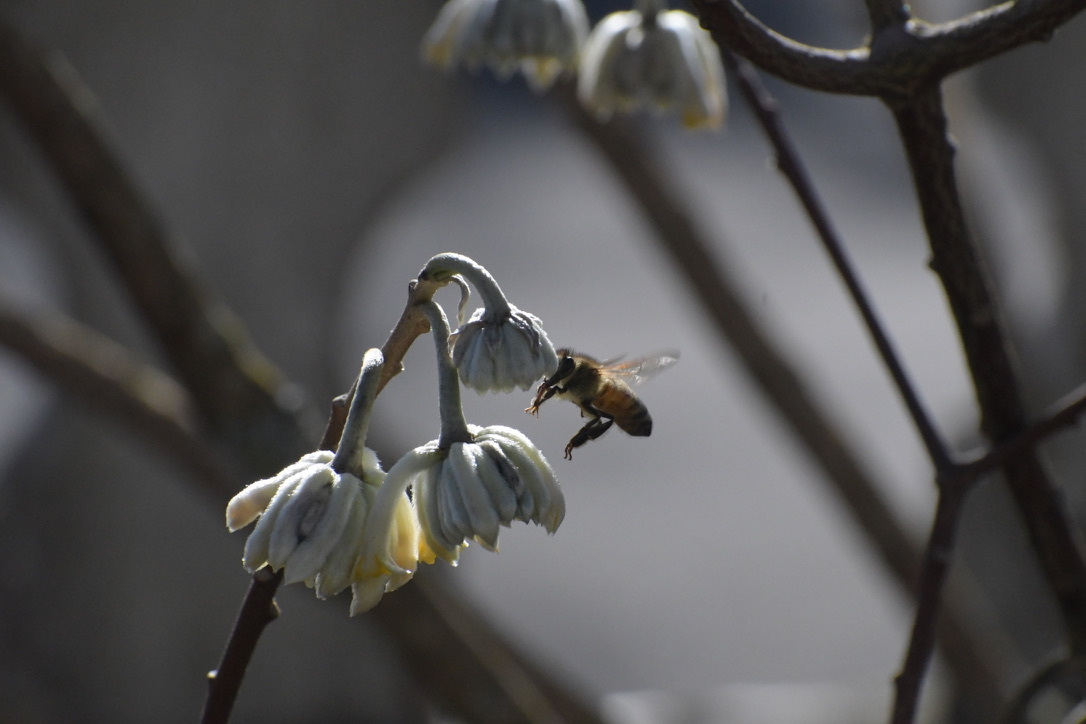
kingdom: Animalia
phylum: Arthropoda
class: Insecta
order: Hymenoptera
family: Apidae
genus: Apis
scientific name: Apis mellifera
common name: Honey bee
